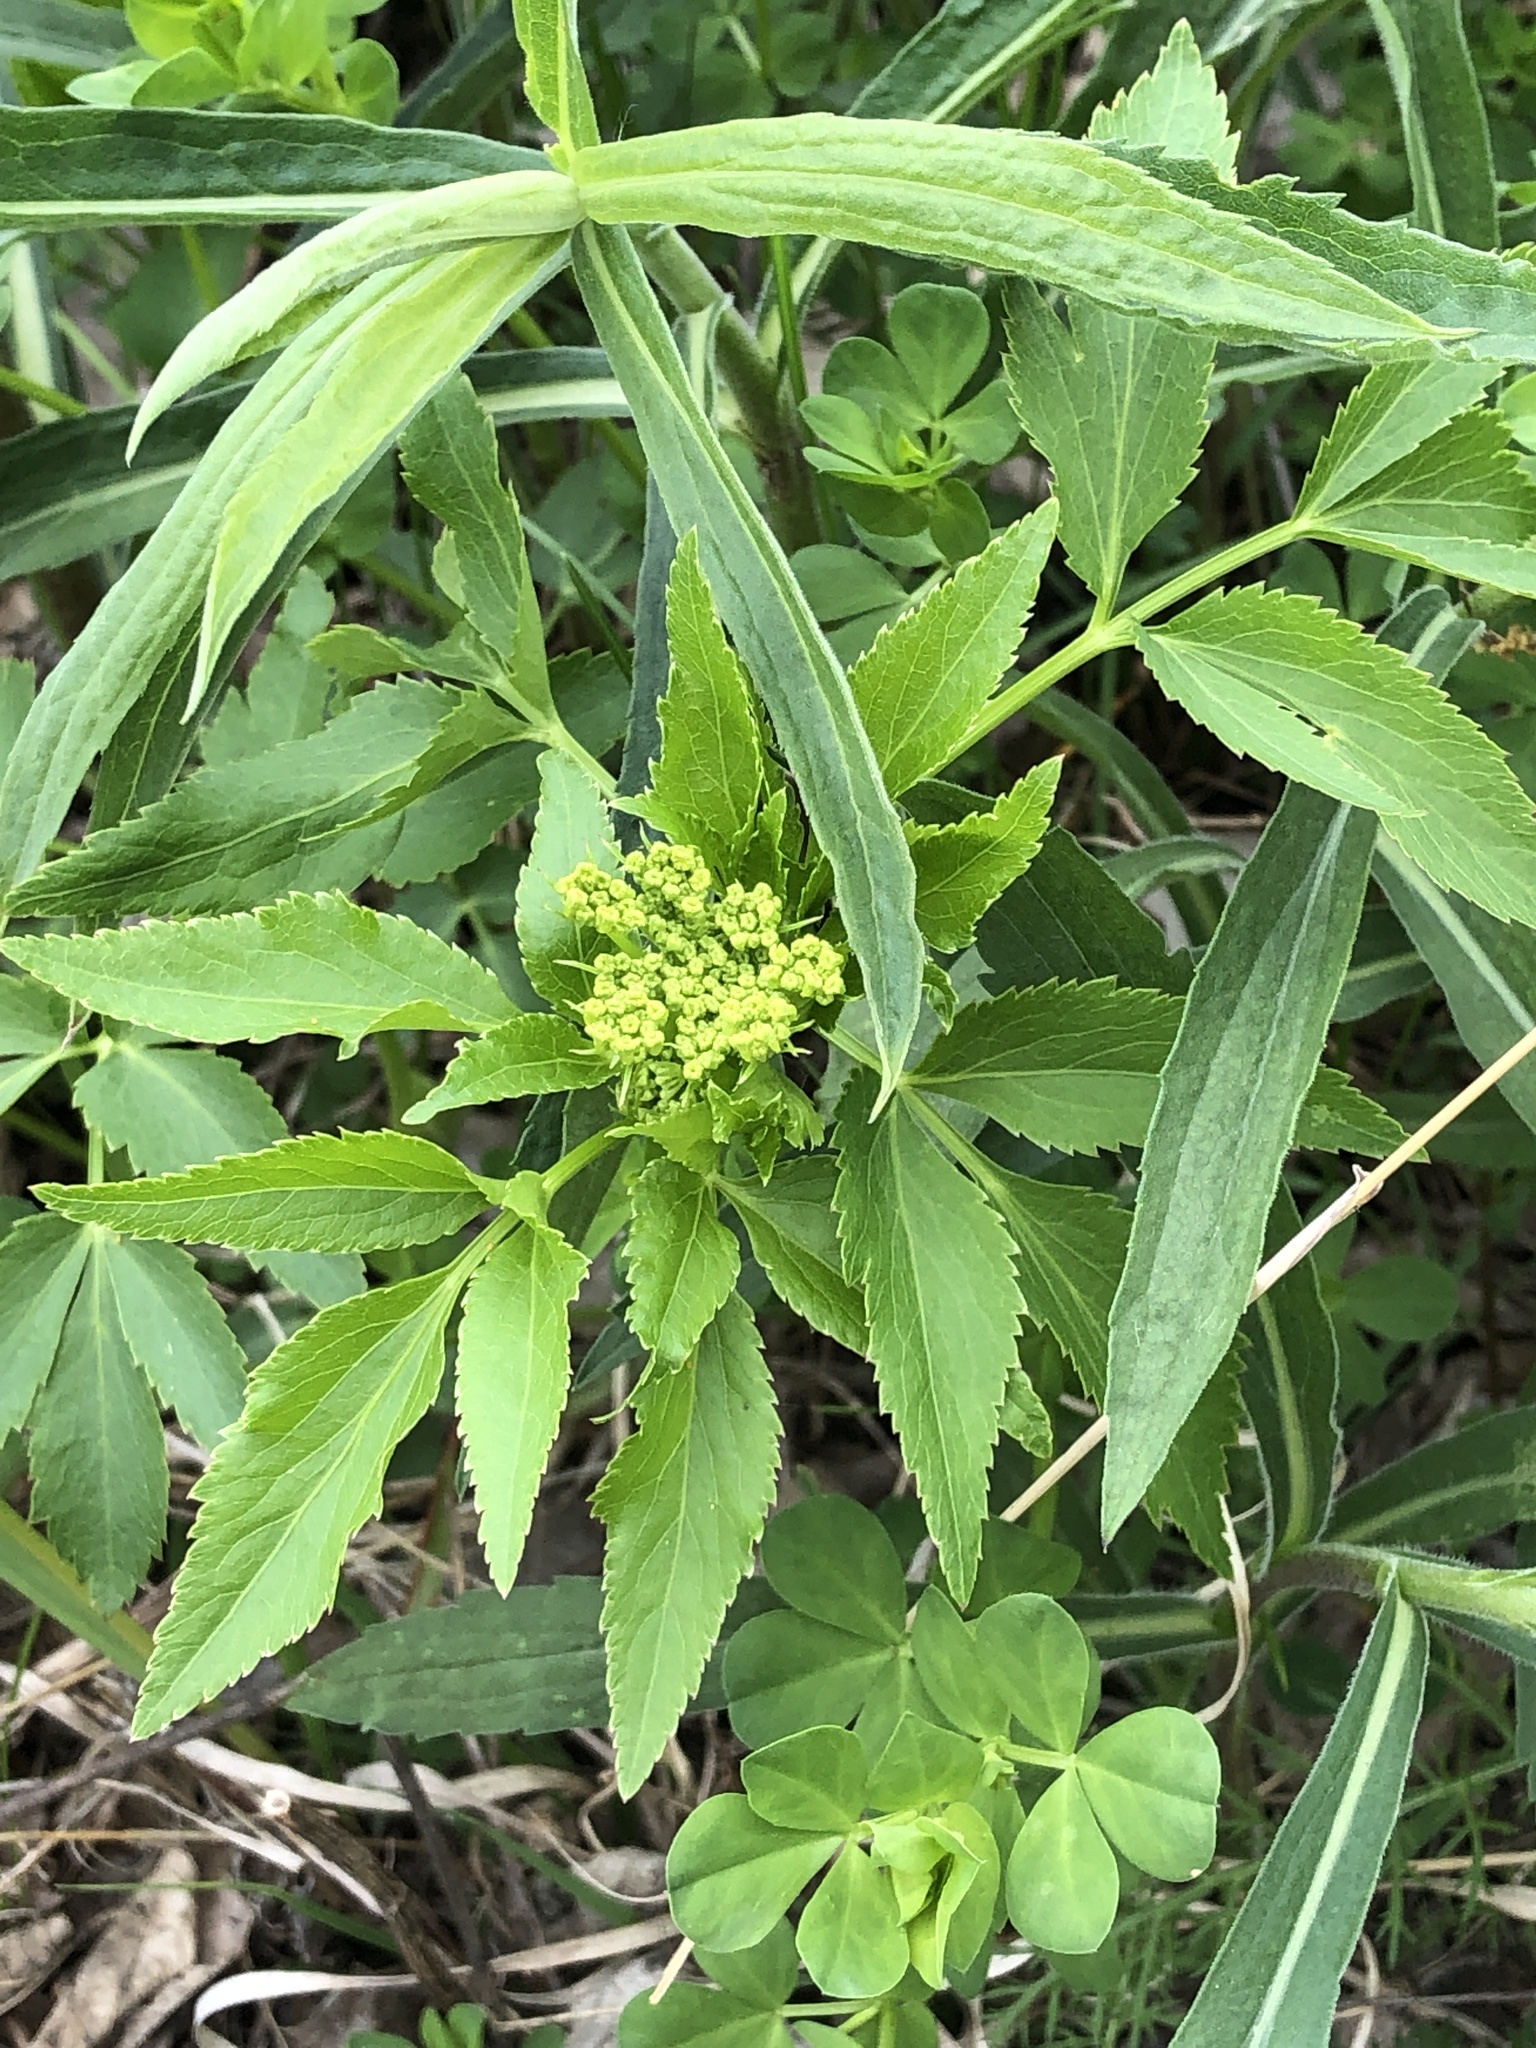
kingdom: Plantae
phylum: Tracheophyta
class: Magnoliopsida
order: Apiales
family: Apiaceae
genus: Zizia
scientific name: Zizia aurea
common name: Golden alexanders
